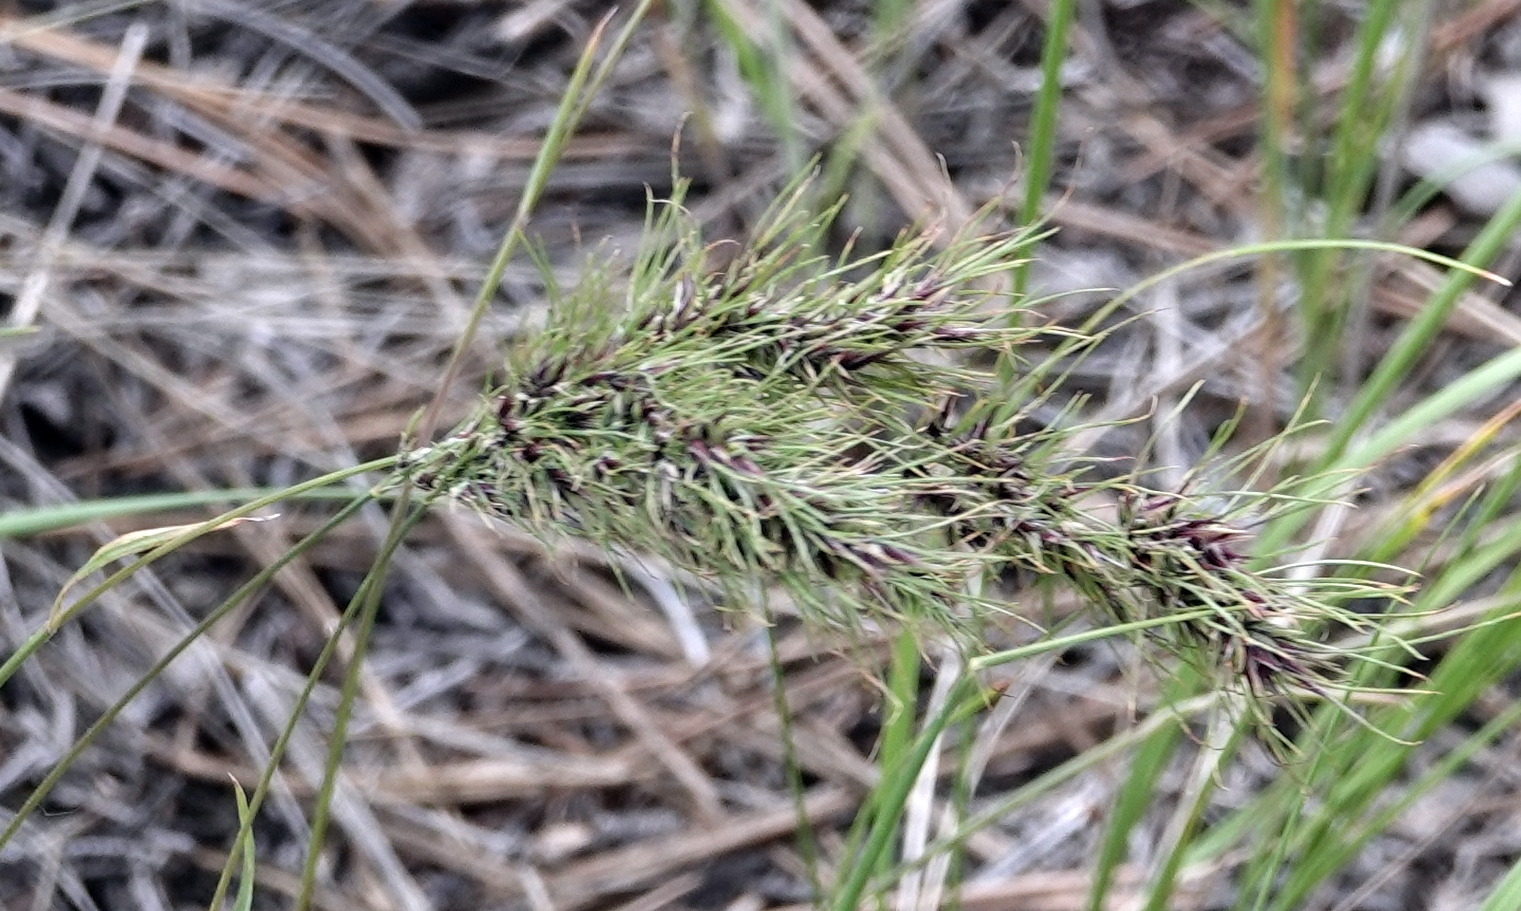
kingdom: Plantae
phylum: Tracheophyta
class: Liliopsida
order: Poales
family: Poaceae
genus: Poa
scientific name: Poa bulbosa
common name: Bulbous bluegrass
